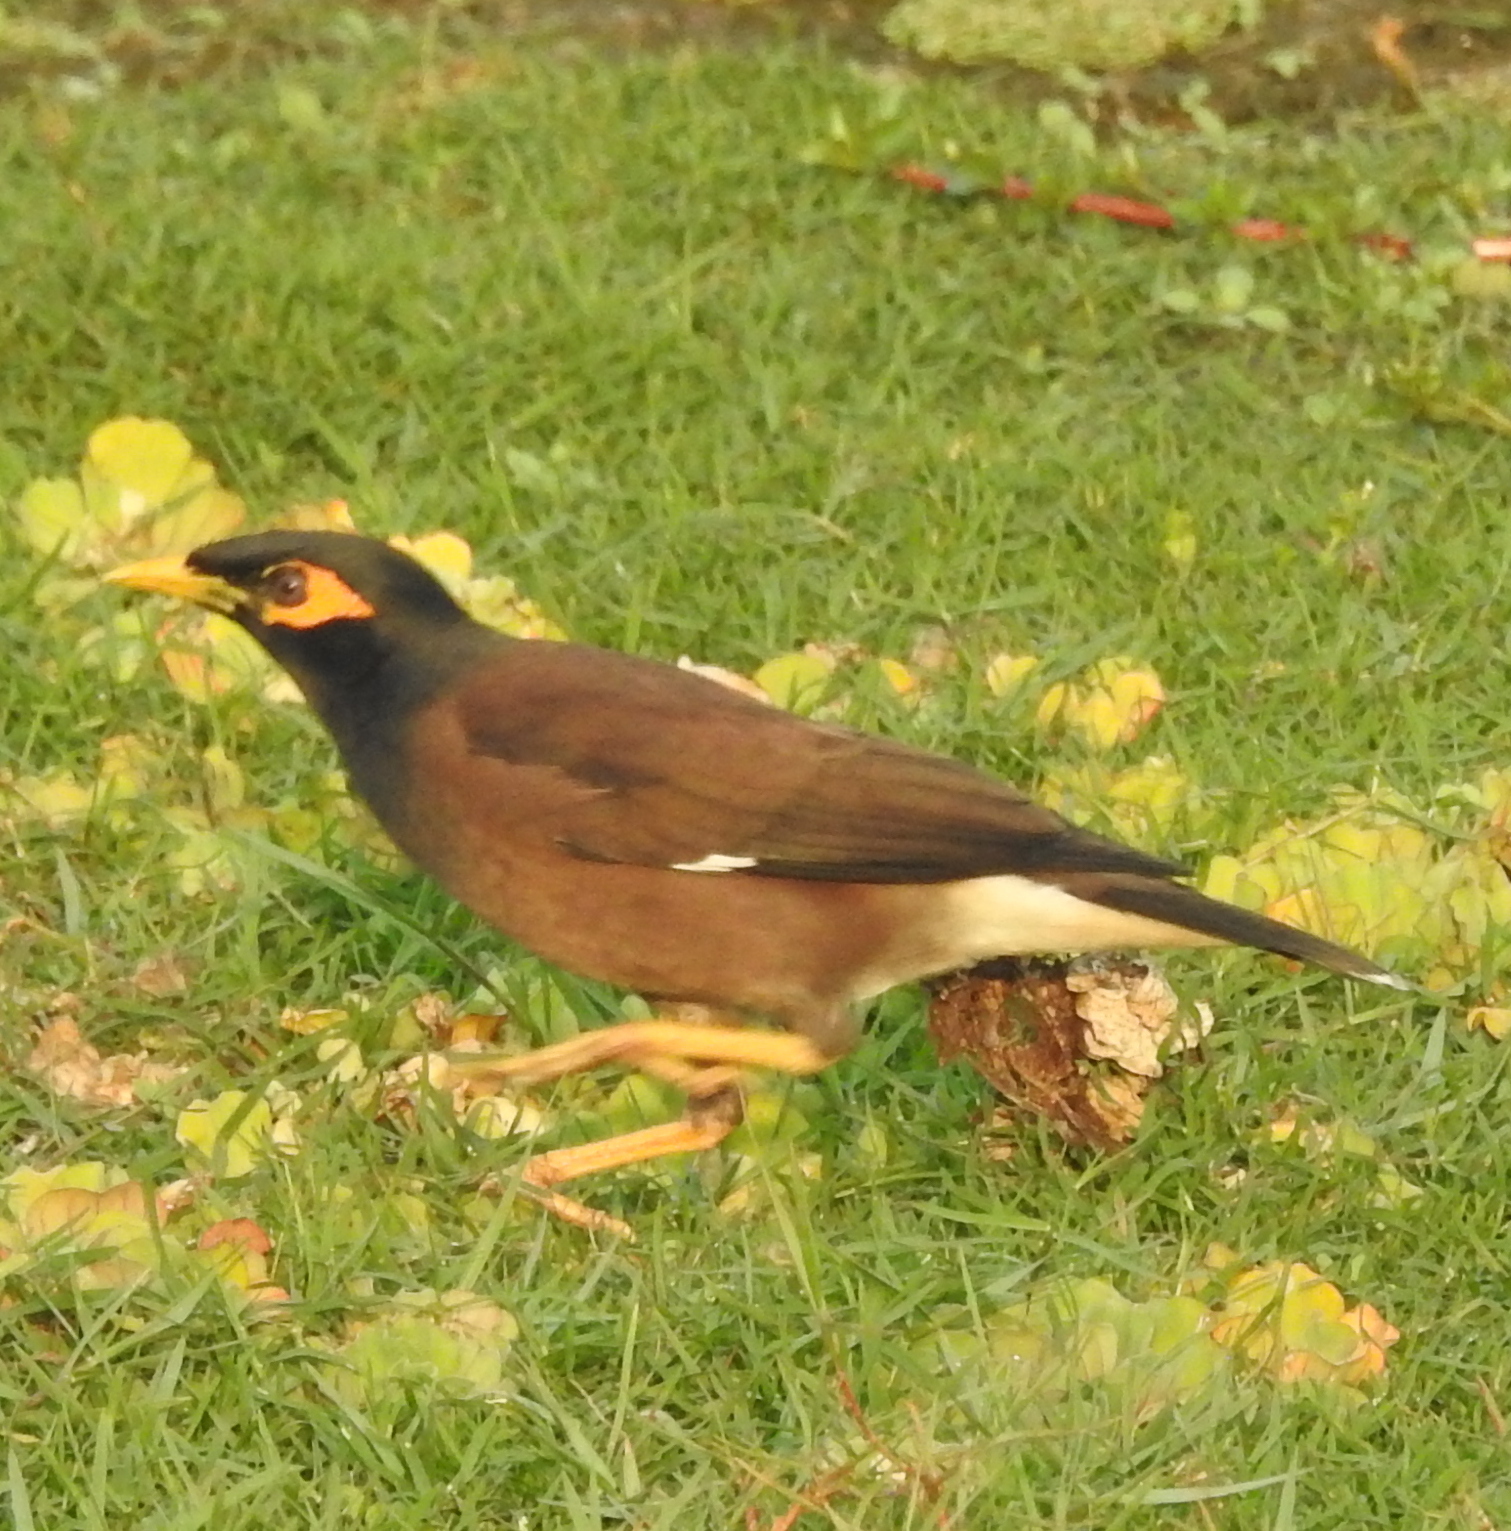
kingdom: Animalia
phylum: Chordata
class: Aves
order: Passeriformes
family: Sturnidae
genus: Acridotheres
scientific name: Acridotheres tristis
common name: Common myna
